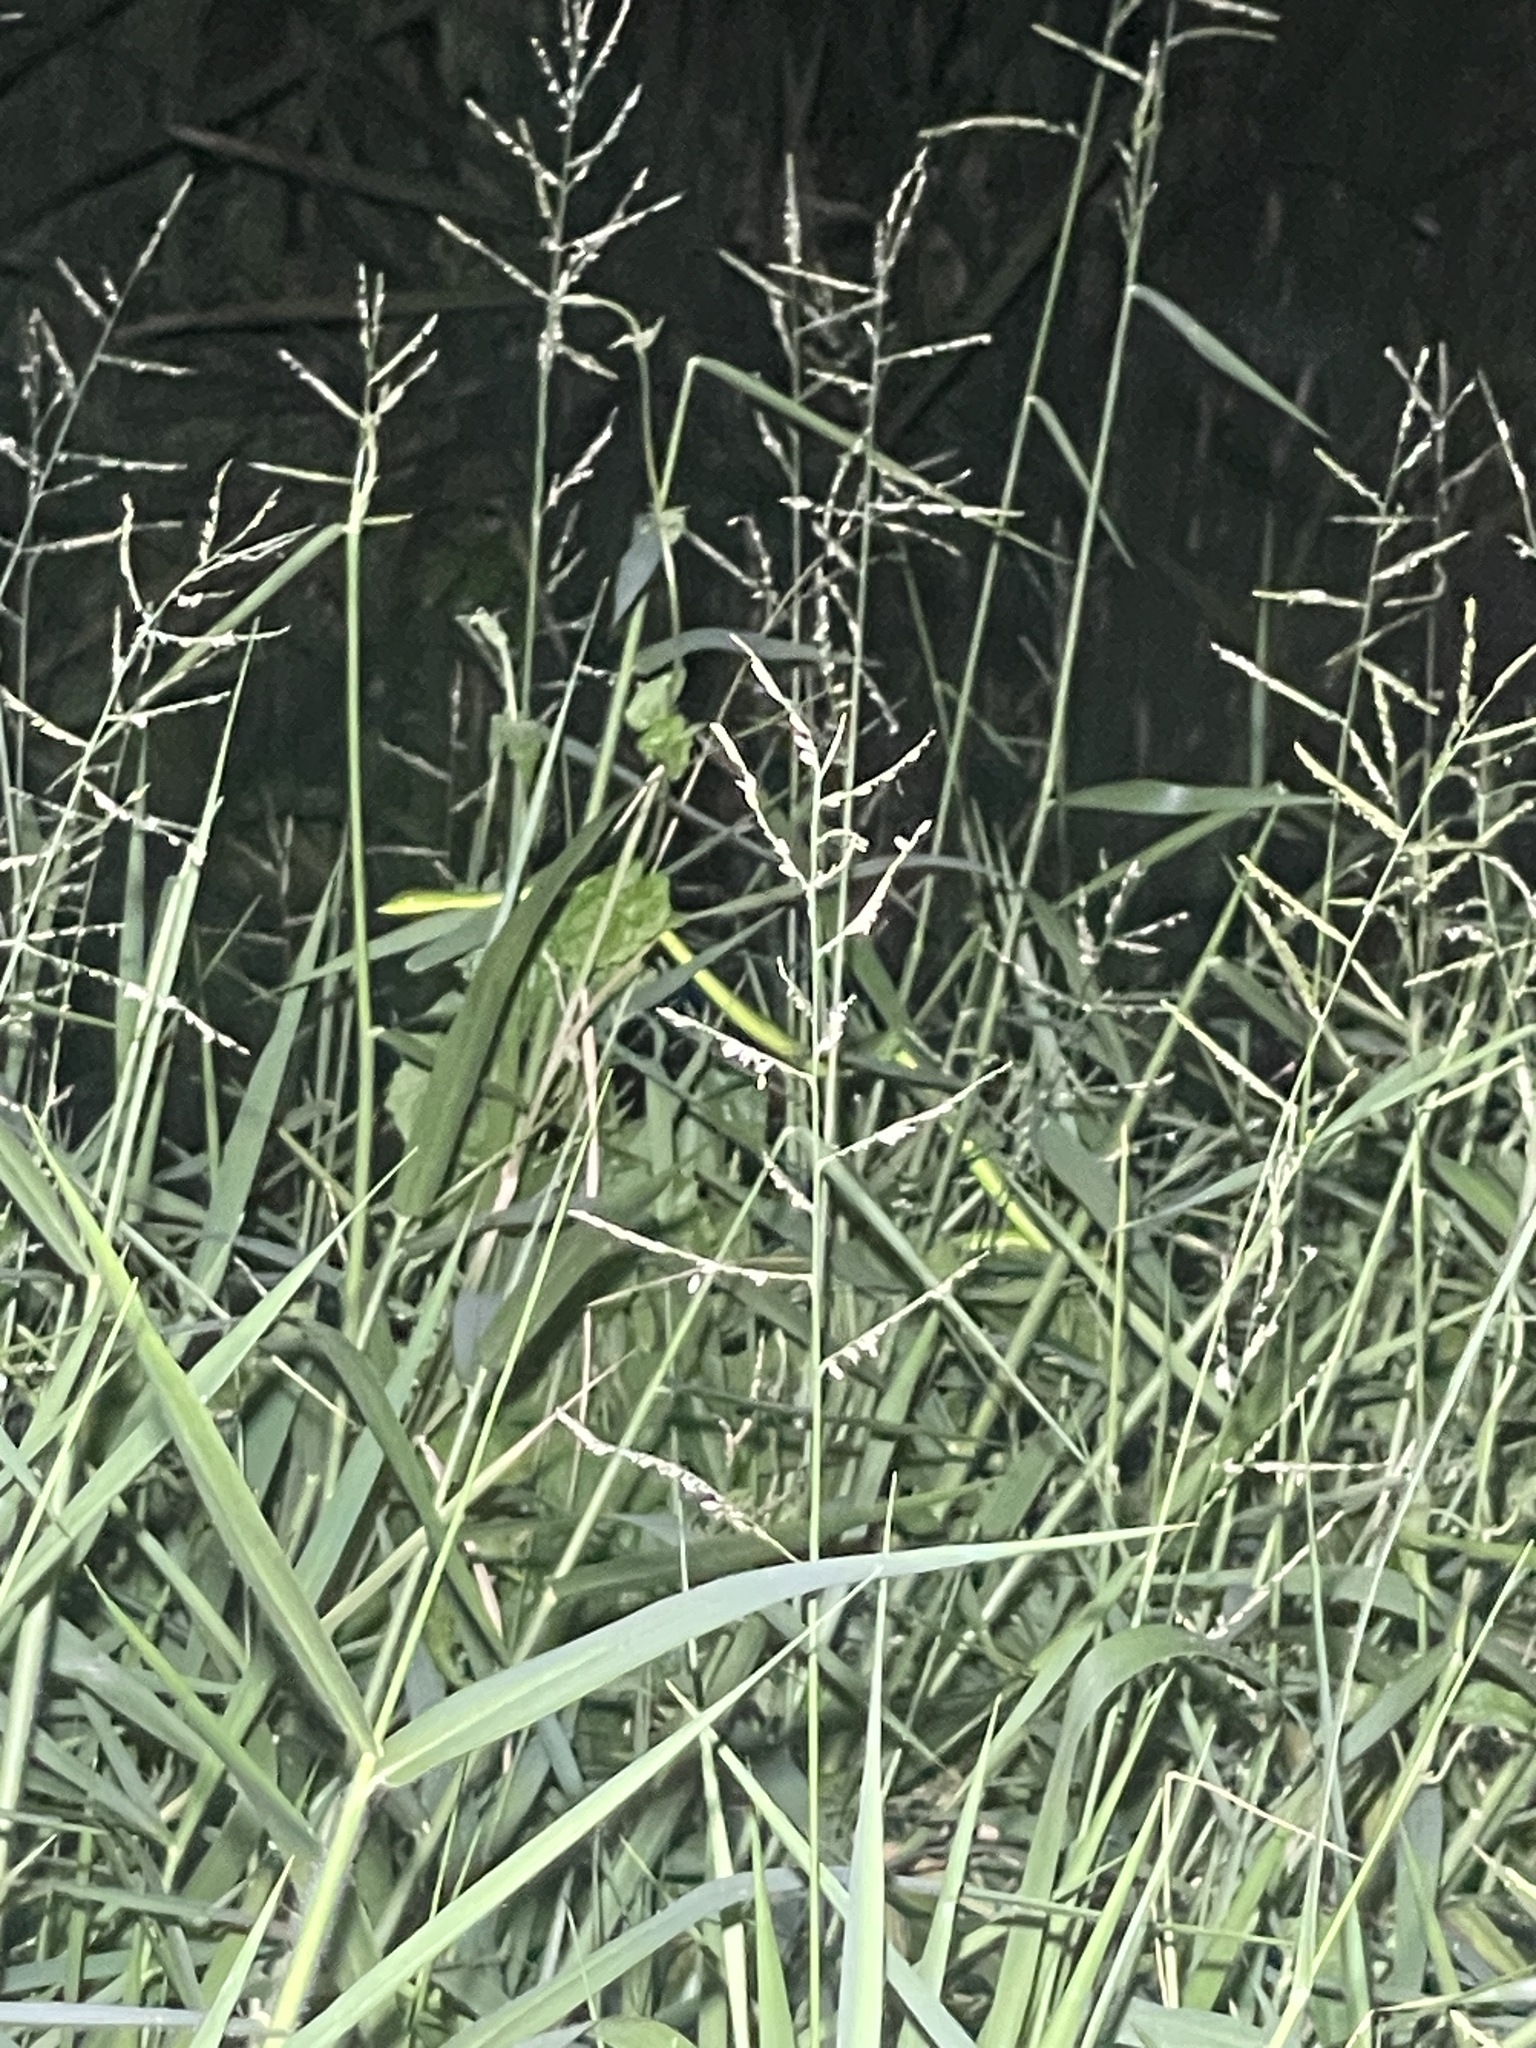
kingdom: Animalia
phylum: Chordata
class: Squamata
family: Colubridae
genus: Ahaetulla
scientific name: Ahaetulla
